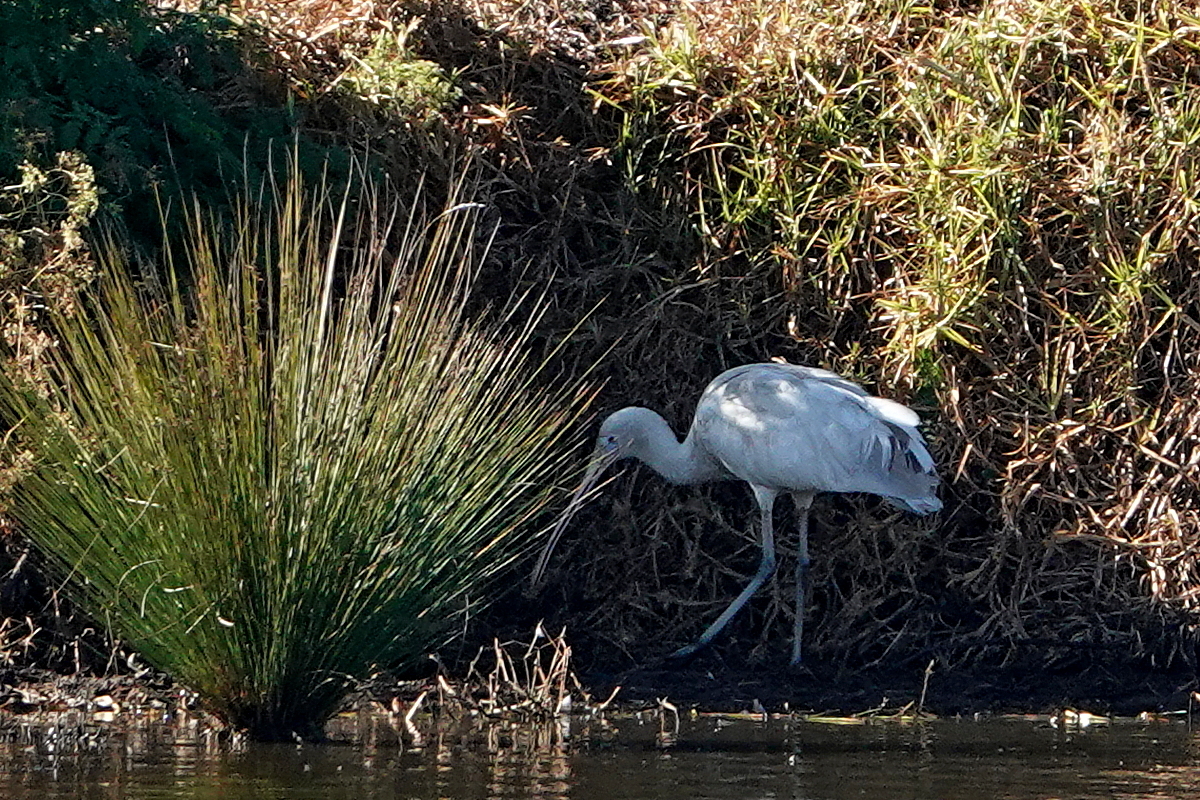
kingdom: Animalia
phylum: Chordata
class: Aves
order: Pelecaniformes
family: Threskiornithidae
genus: Platalea
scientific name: Platalea flavipes
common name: Yellow-billed spoonbill
